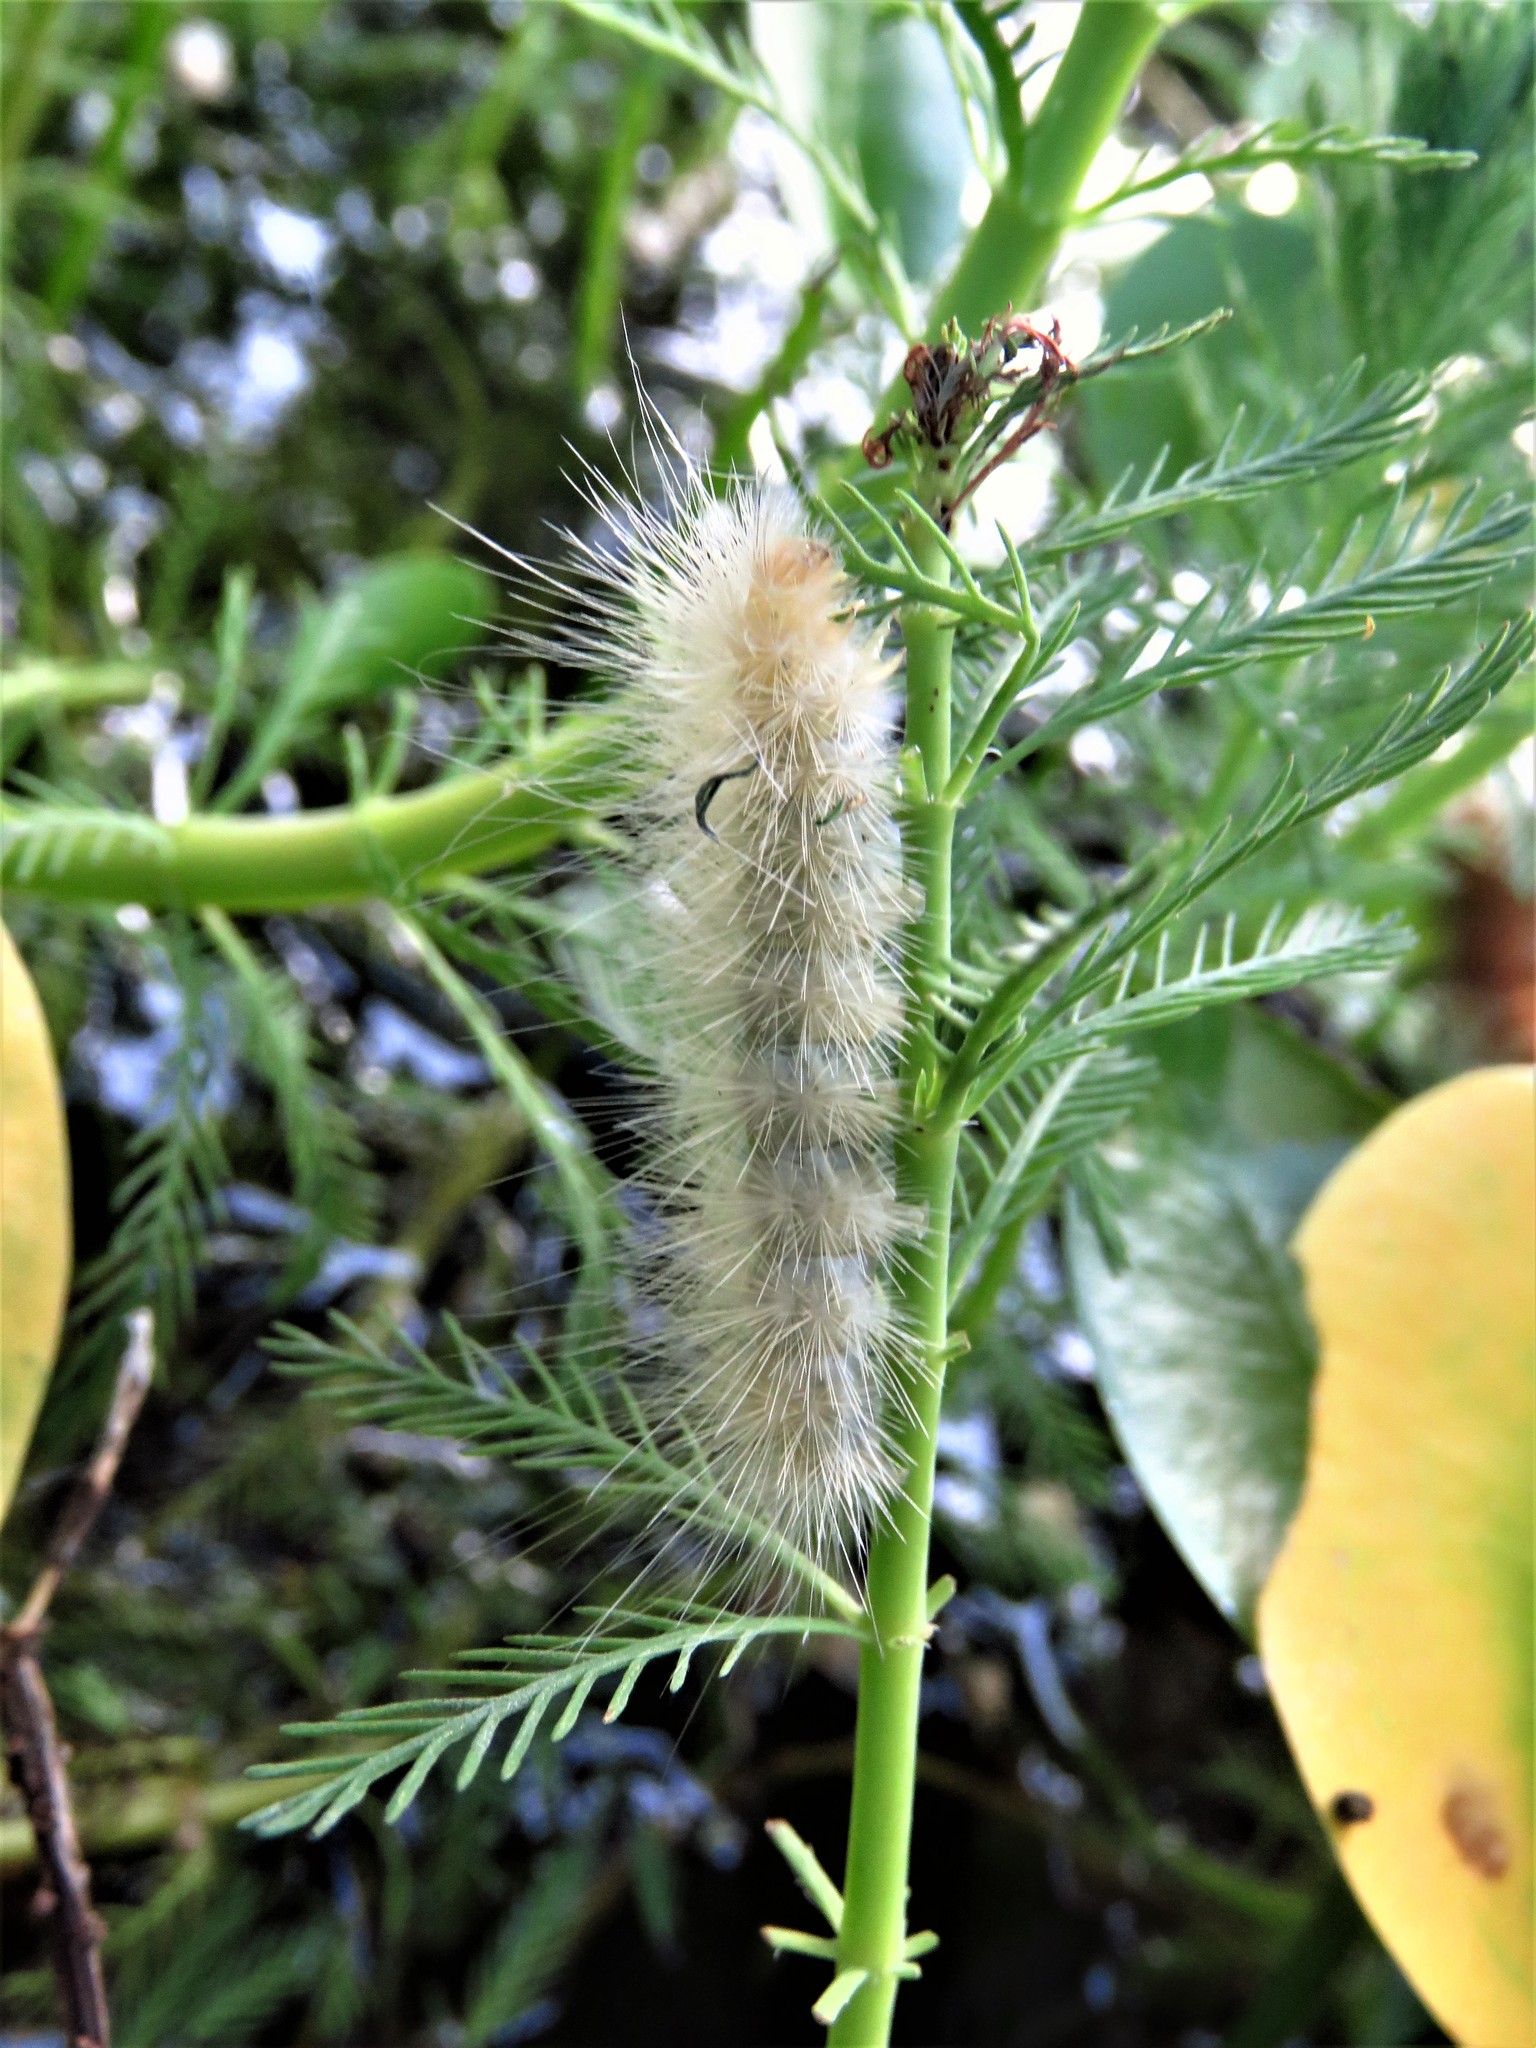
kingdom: Animalia
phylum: Arthropoda
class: Insecta
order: Lepidoptera
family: Erebidae
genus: Spilosoma
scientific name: Spilosoma virginica
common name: Virginia tiger moth
